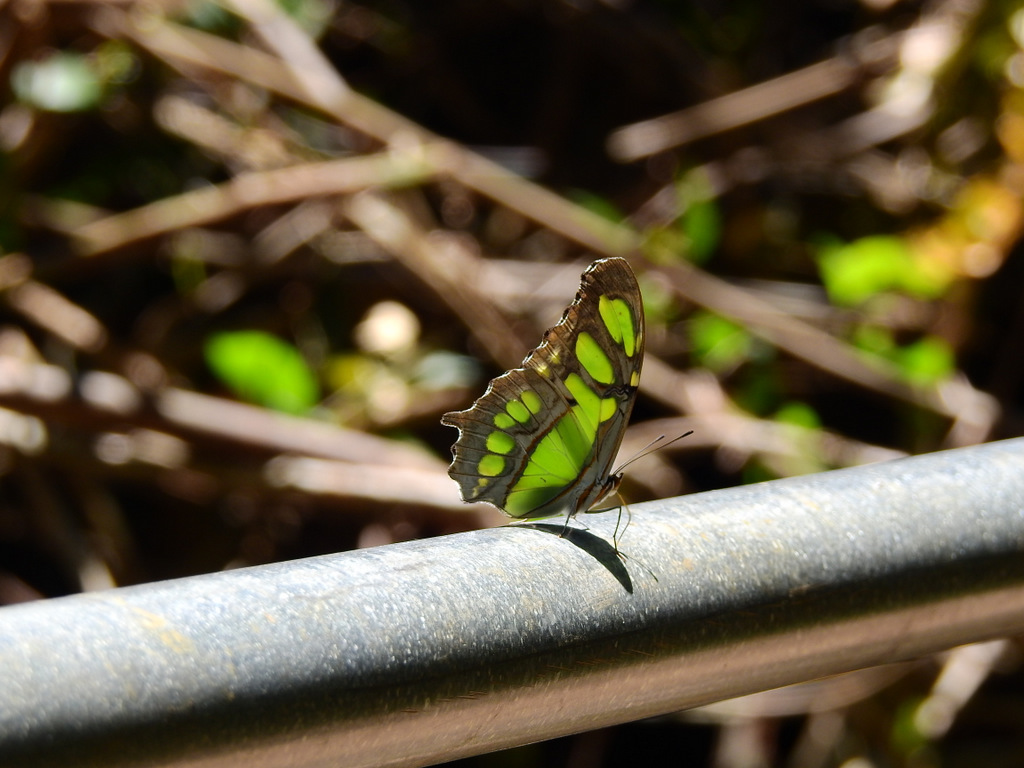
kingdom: Animalia
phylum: Arthropoda
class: Insecta
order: Lepidoptera
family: Nymphalidae
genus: Siproeta
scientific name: Siproeta stelenes
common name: Malachite
